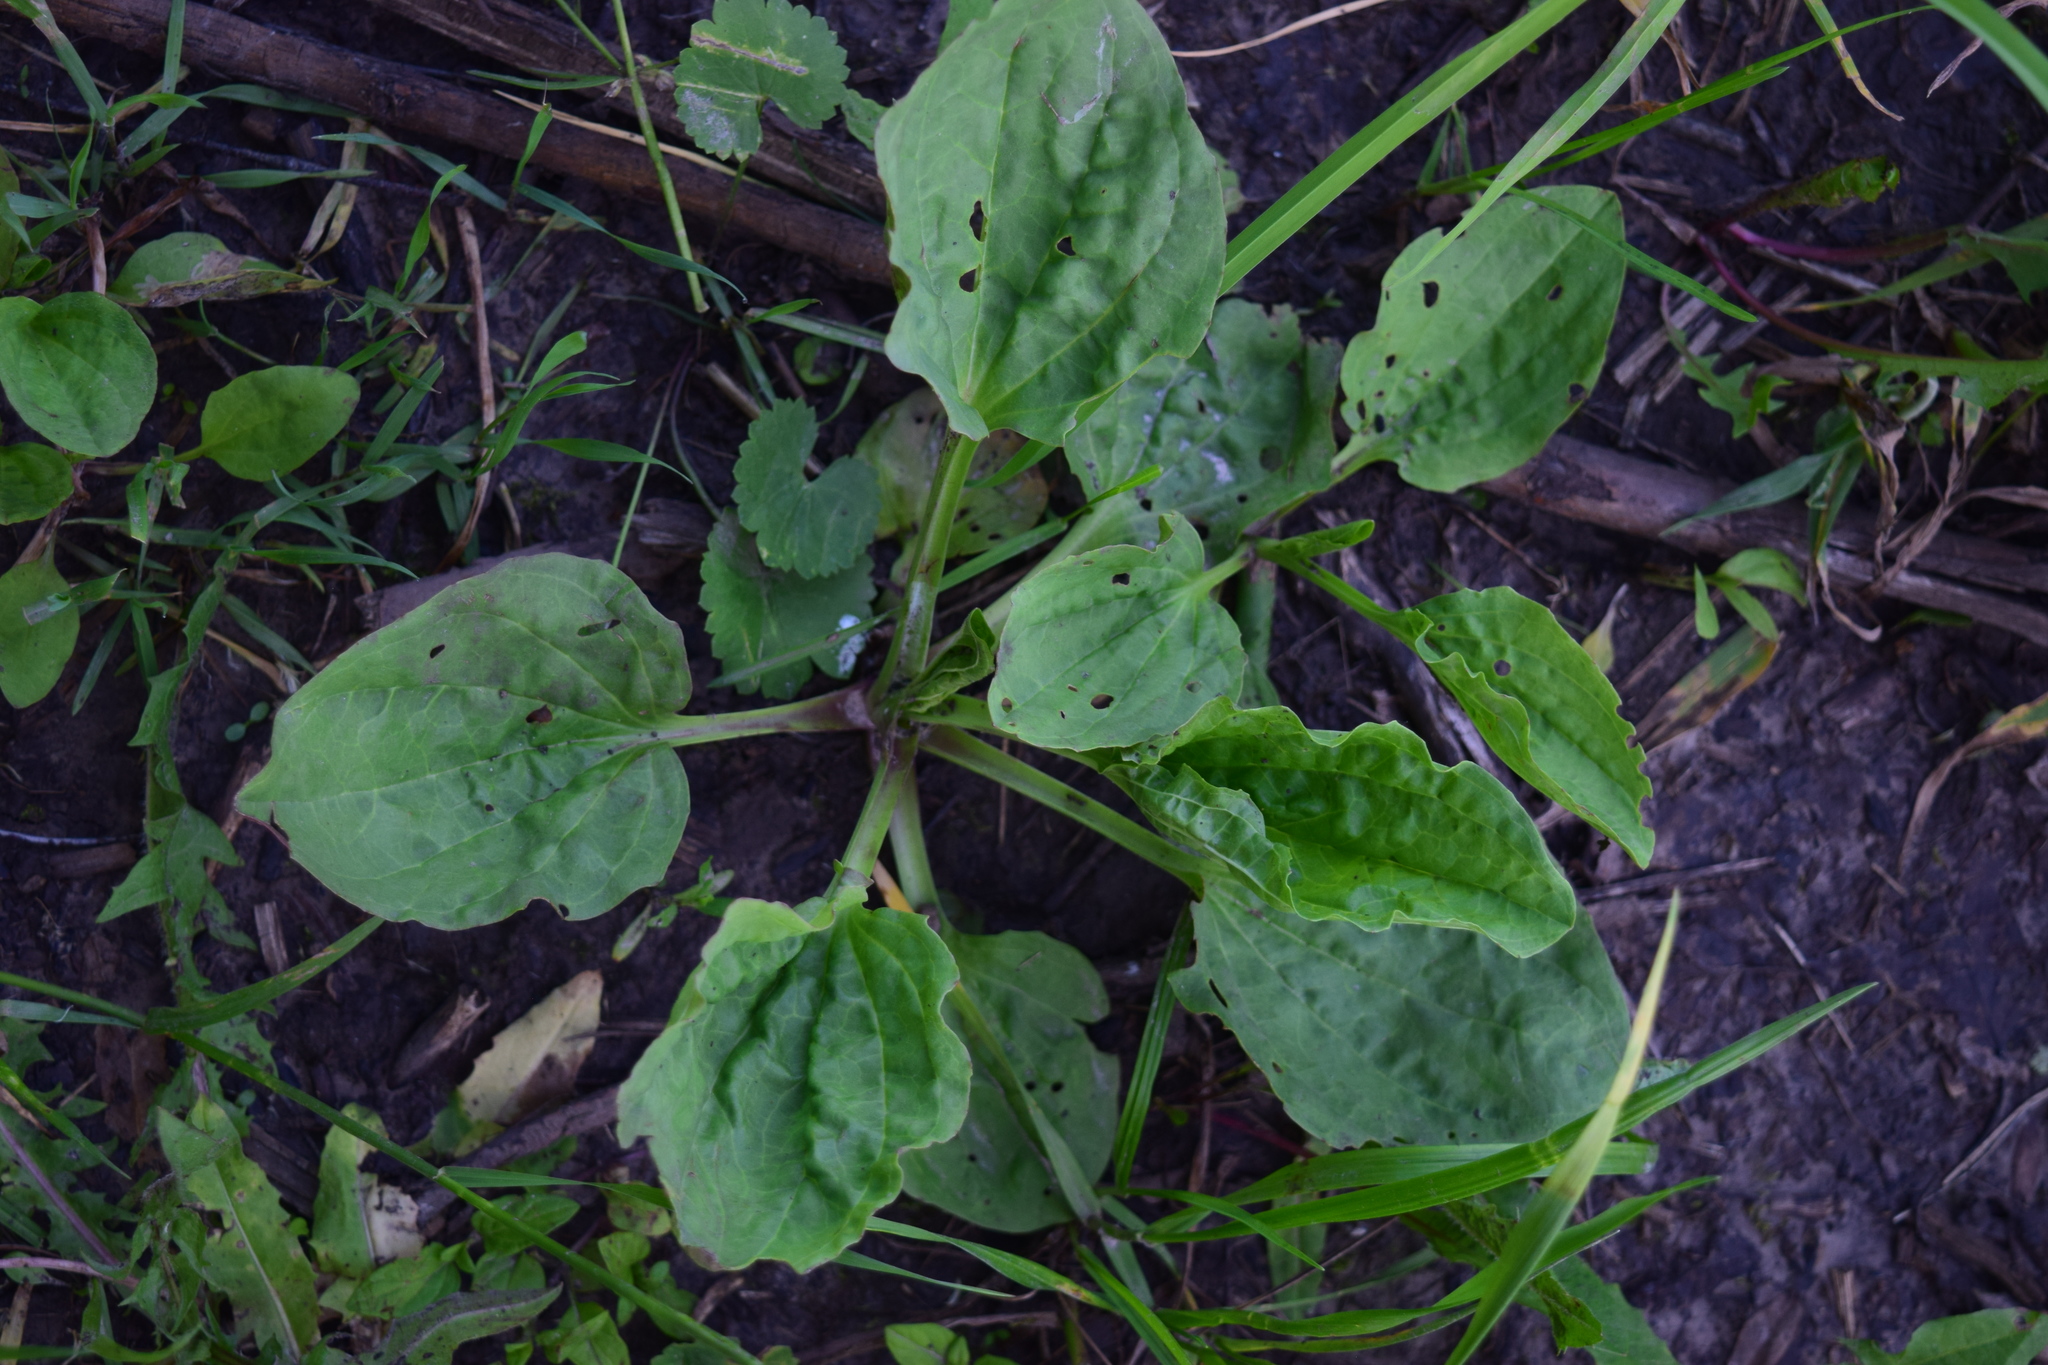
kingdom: Plantae
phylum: Tracheophyta
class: Magnoliopsida
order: Lamiales
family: Plantaginaceae
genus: Plantago
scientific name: Plantago major
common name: Common plantain
